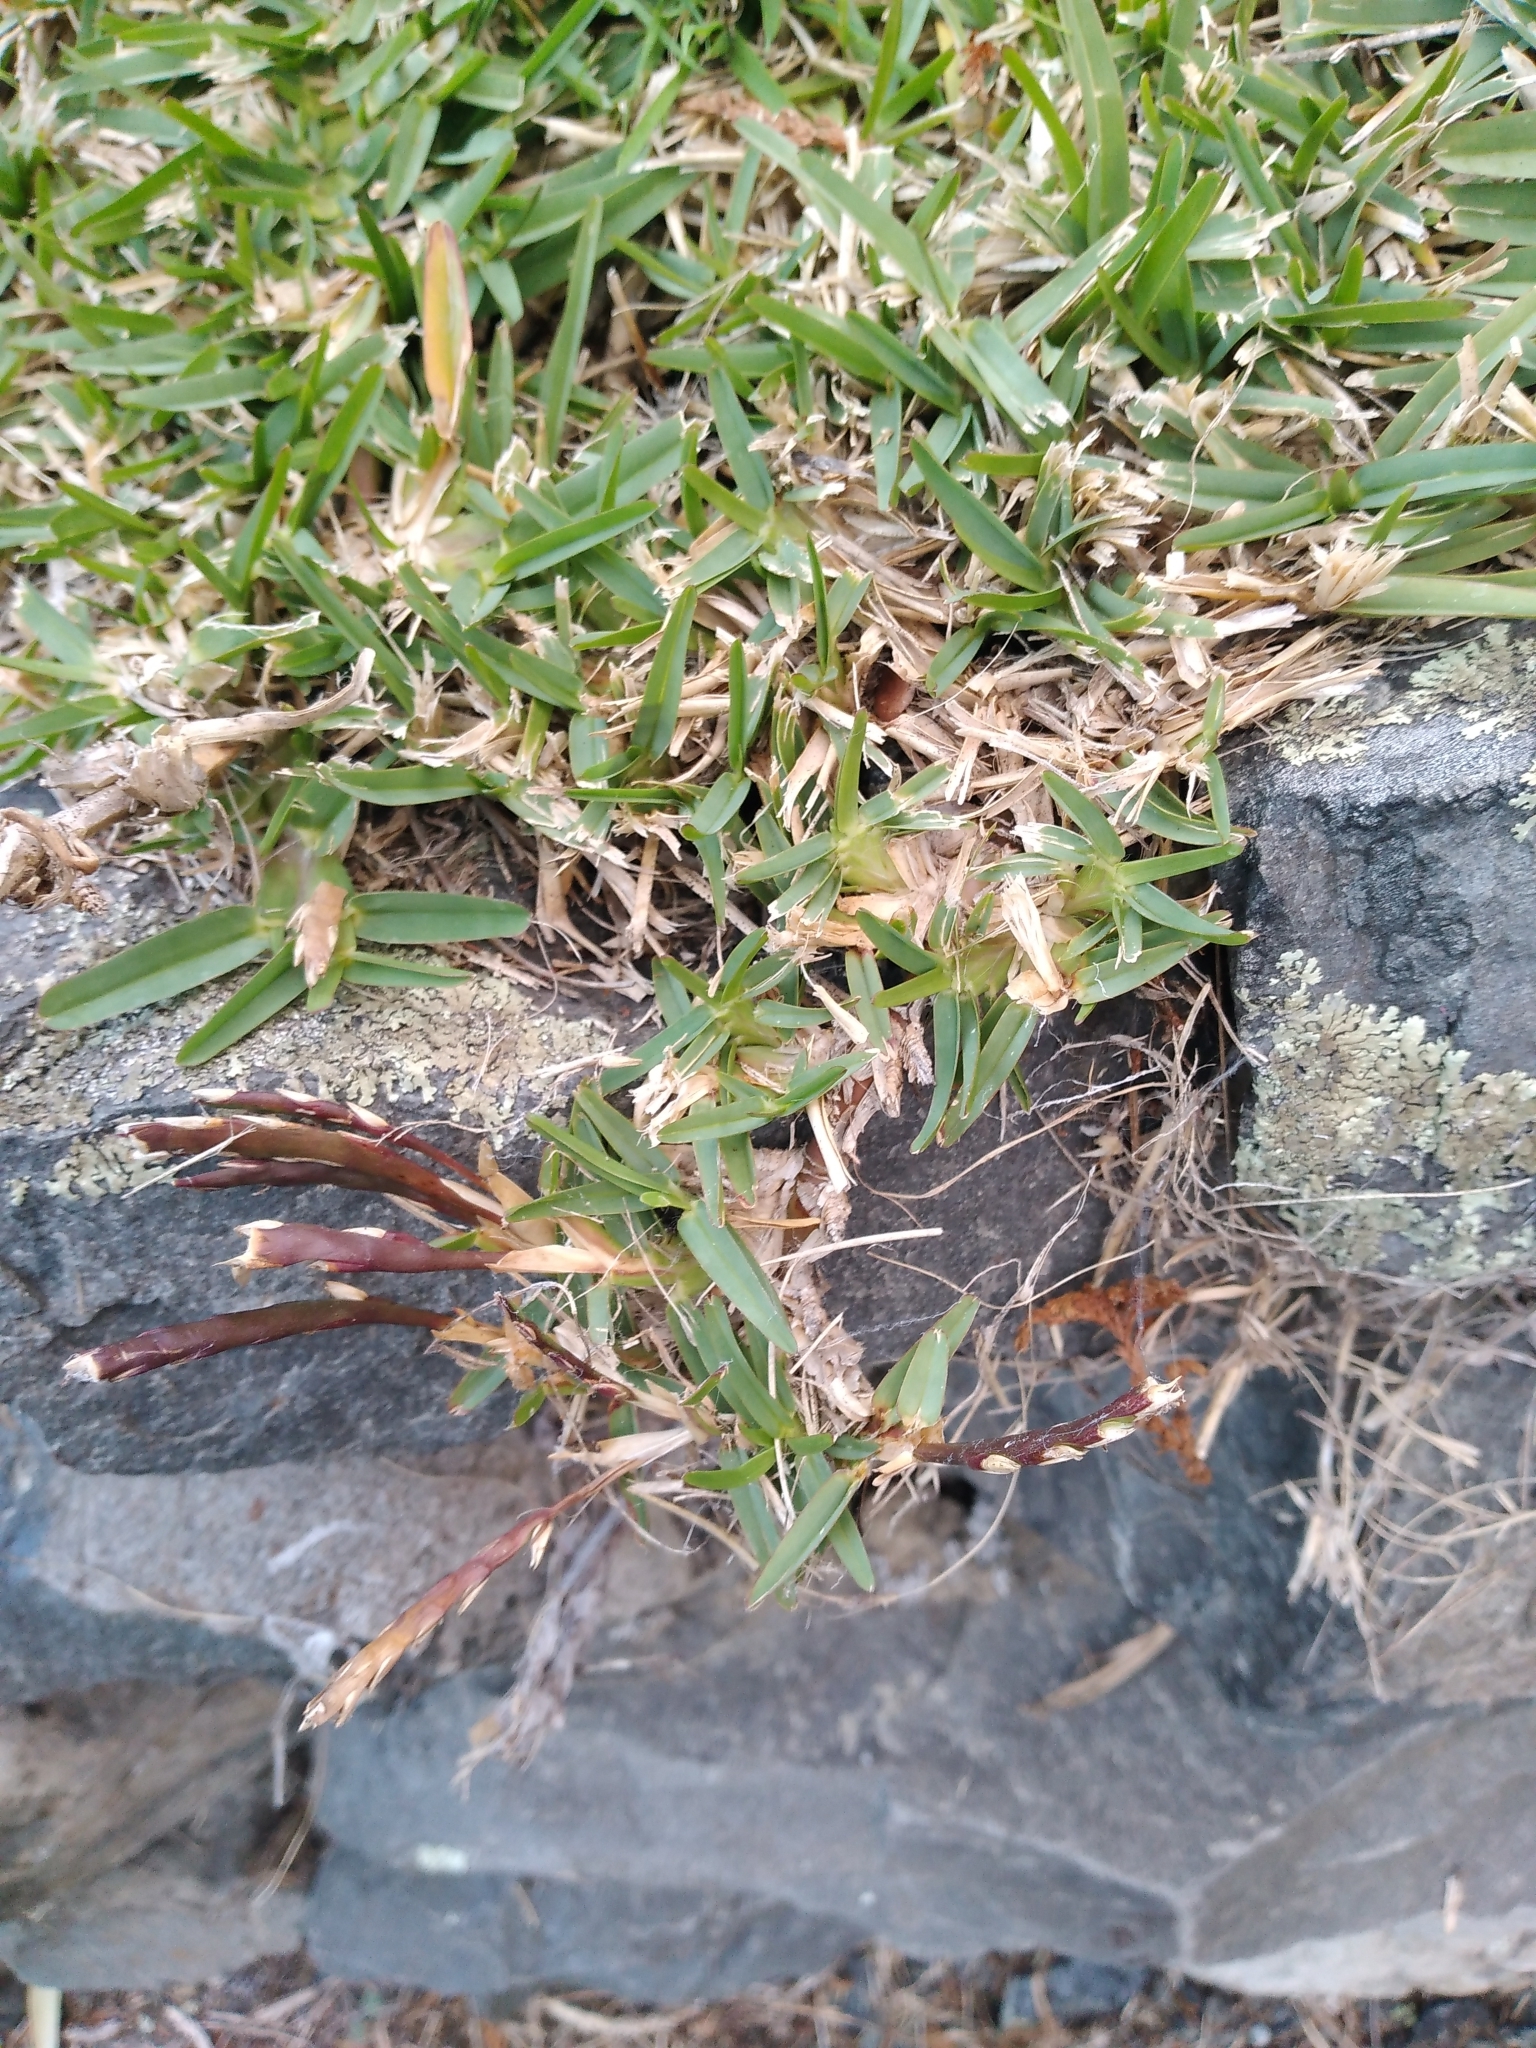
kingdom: Plantae
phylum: Tracheophyta
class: Liliopsida
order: Poales
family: Poaceae
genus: Stenotaphrum
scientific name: Stenotaphrum secundatum
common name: St. augustine grass
